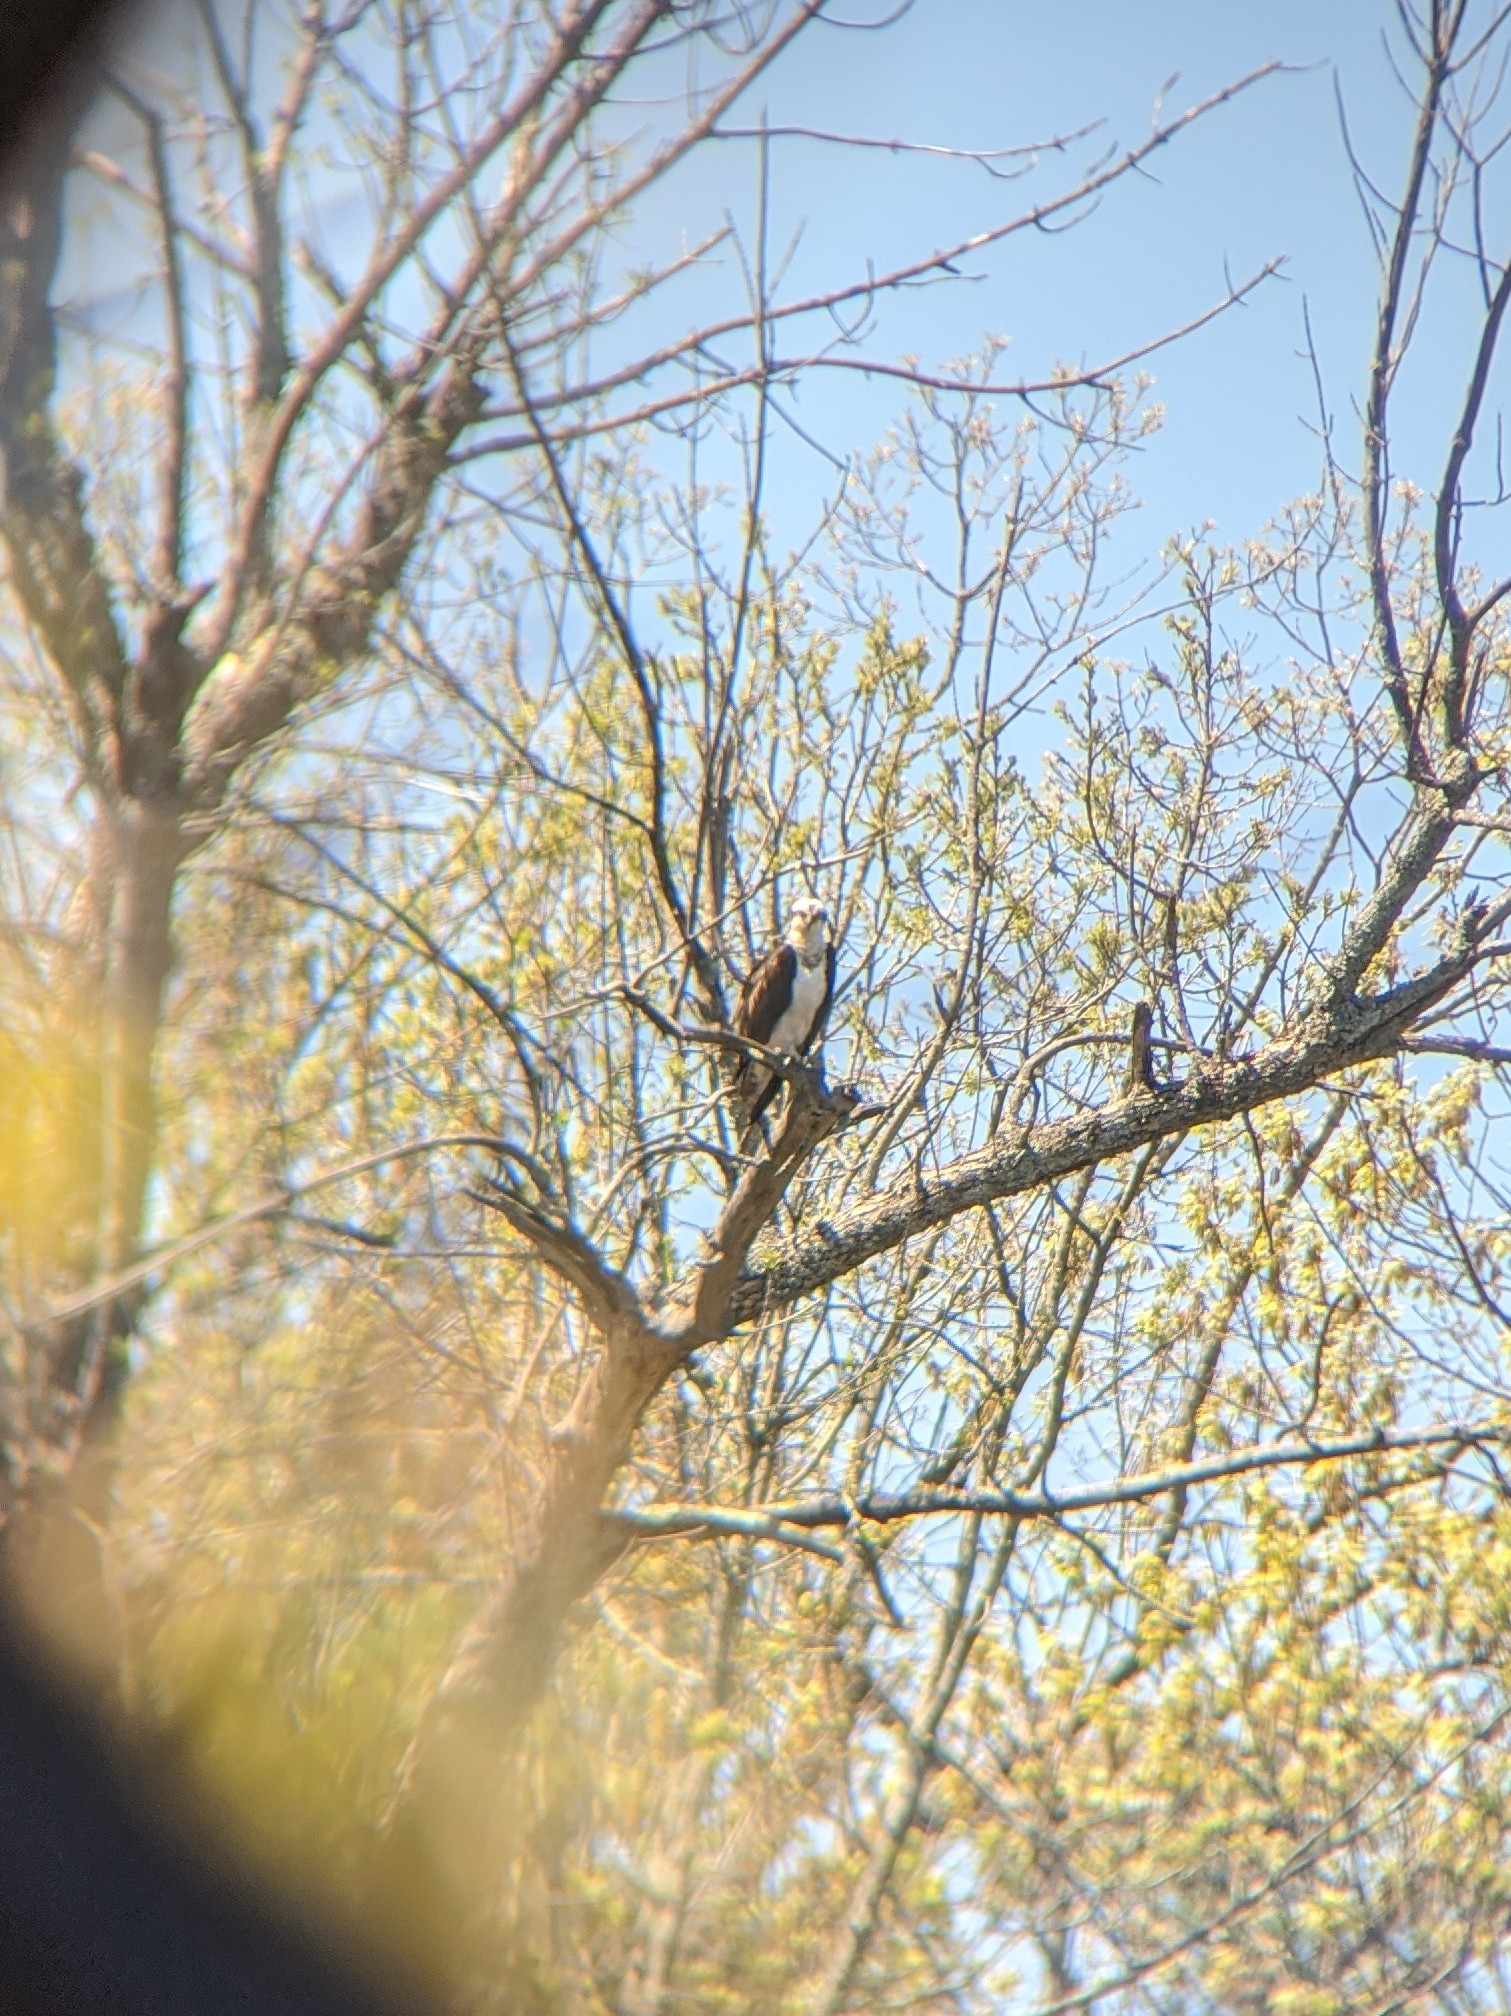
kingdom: Animalia
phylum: Chordata
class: Aves
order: Accipitriformes
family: Pandionidae
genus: Pandion
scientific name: Pandion haliaetus
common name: Osprey
